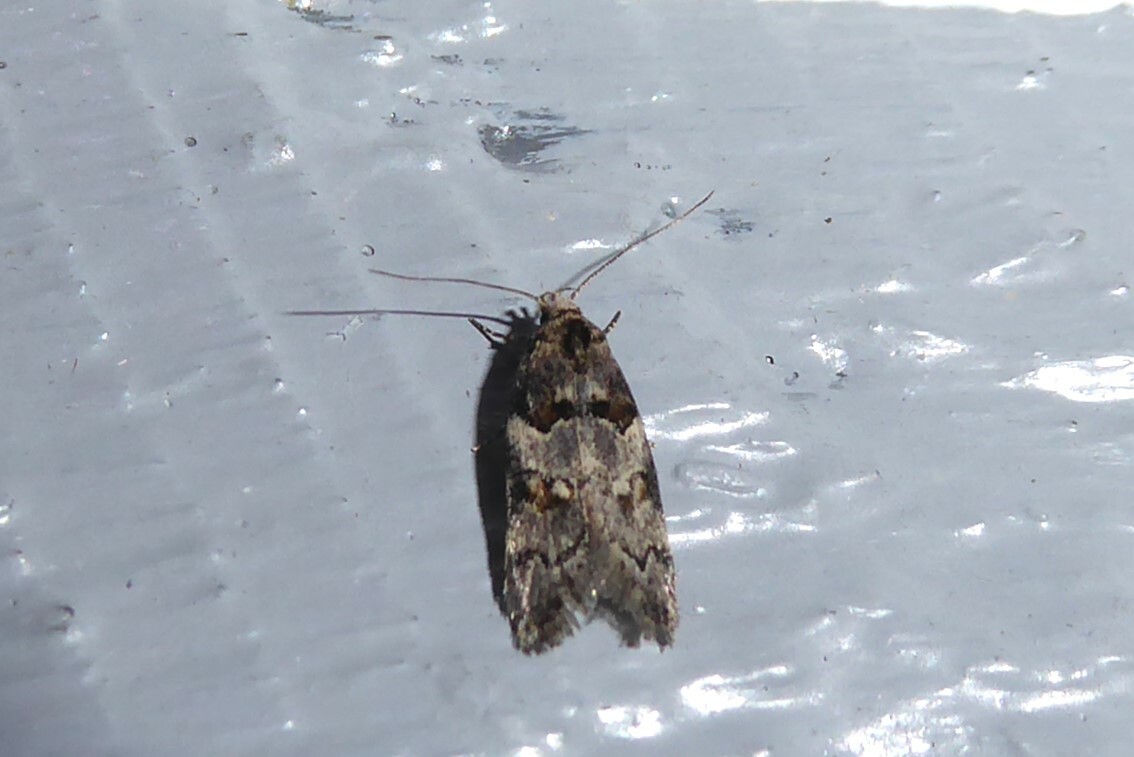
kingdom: Animalia
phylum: Arthropoda
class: Insecta
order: Lepidoptera
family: Oecophoridae
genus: Trachypepla
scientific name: Trachypepla contritella
